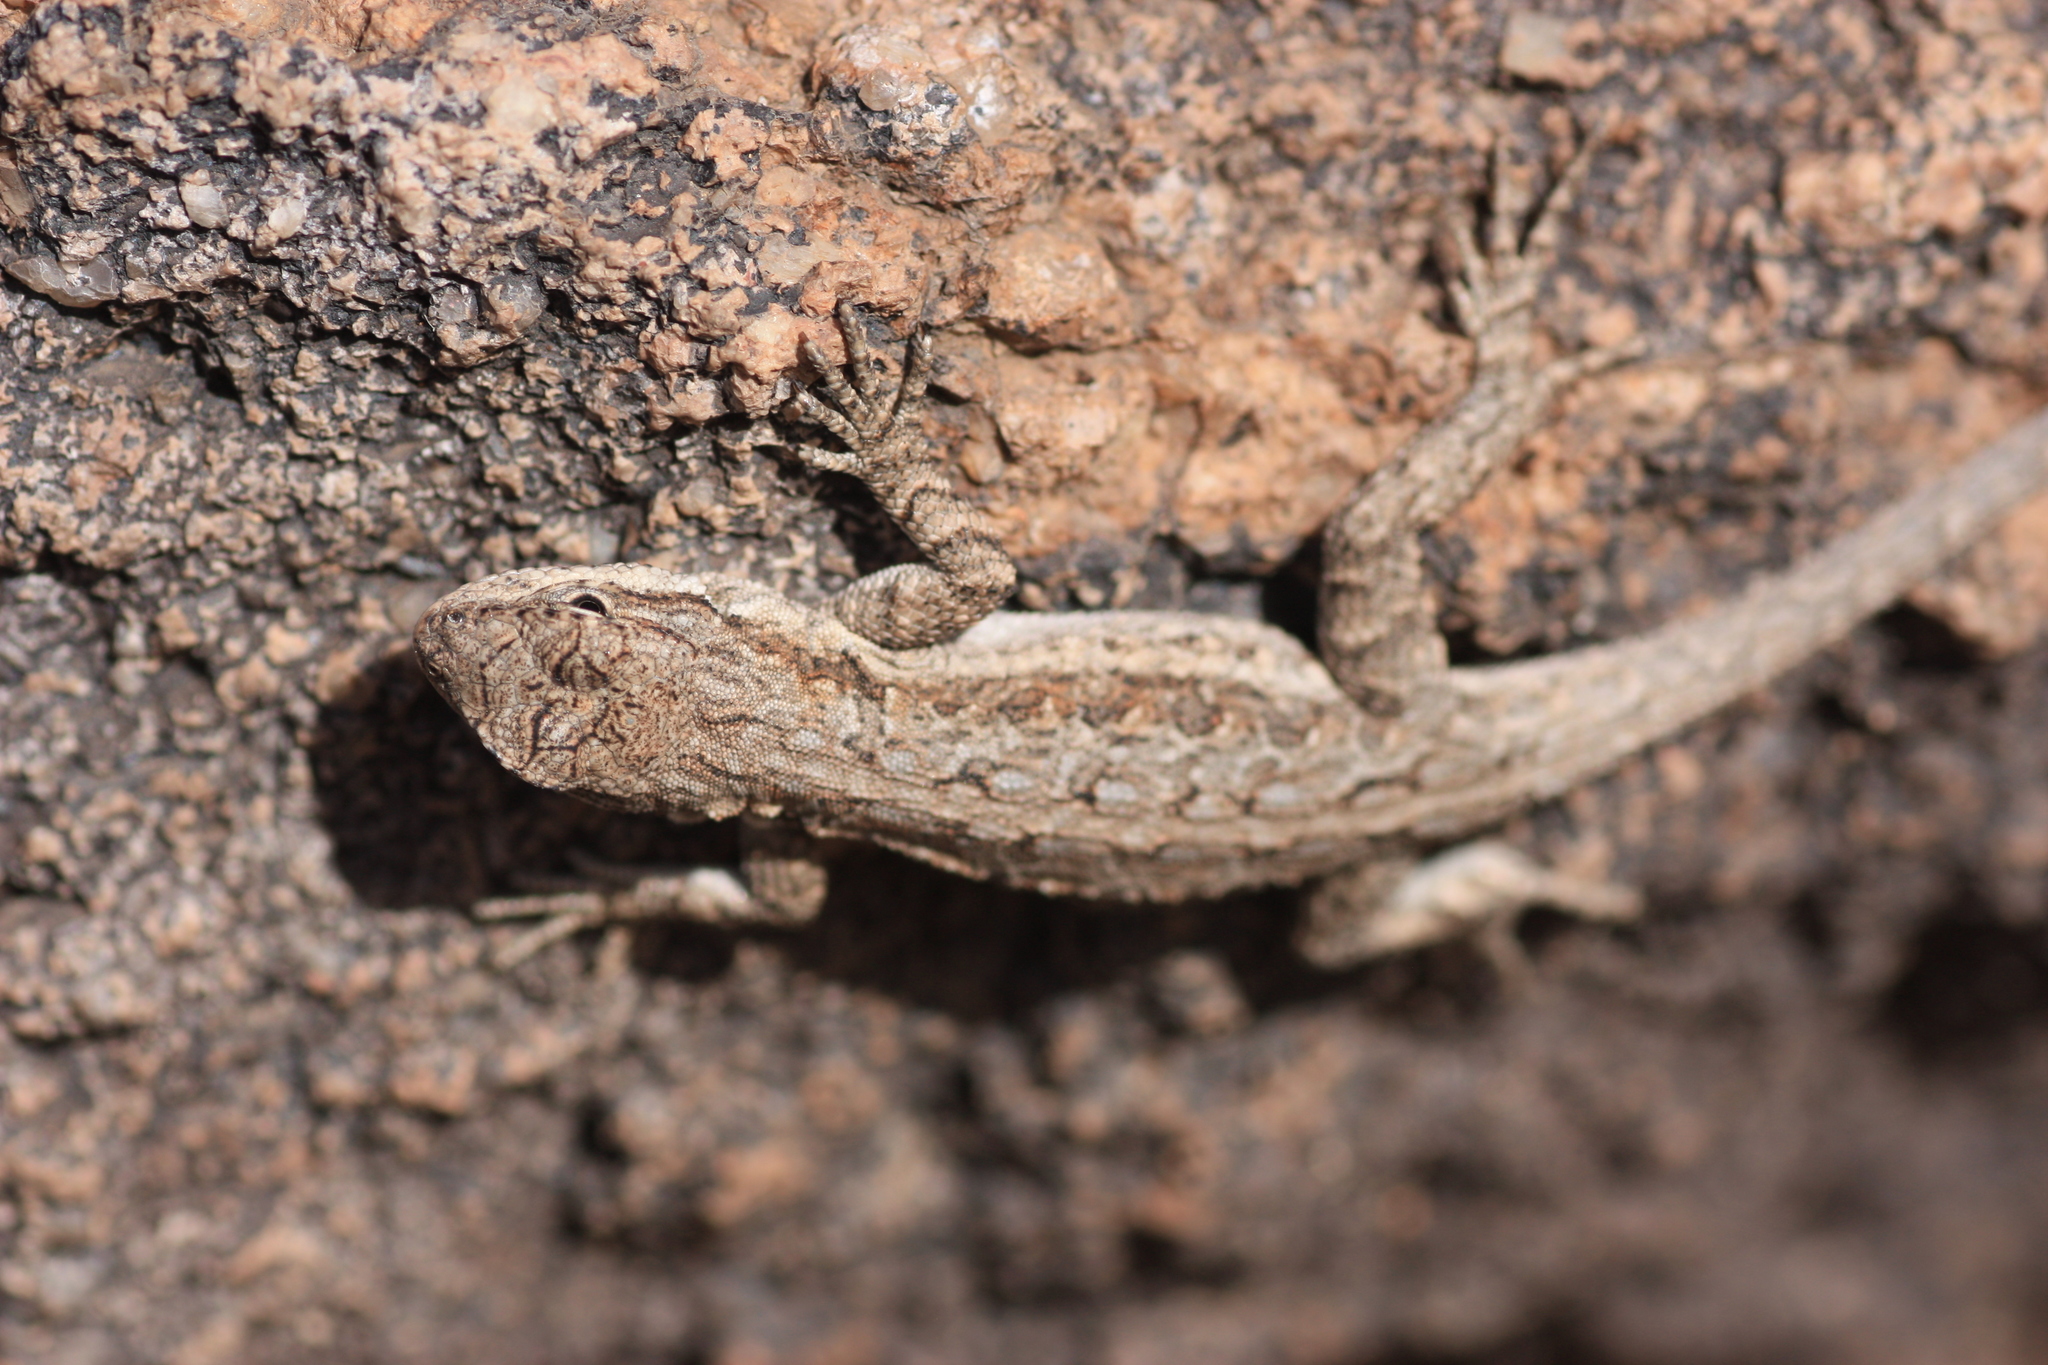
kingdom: Animalia
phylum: Chordata
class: Squamata
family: Phrynosomatidae
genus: Urosaurus
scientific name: Urosaurus ornatus
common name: Ornate tree lizard
